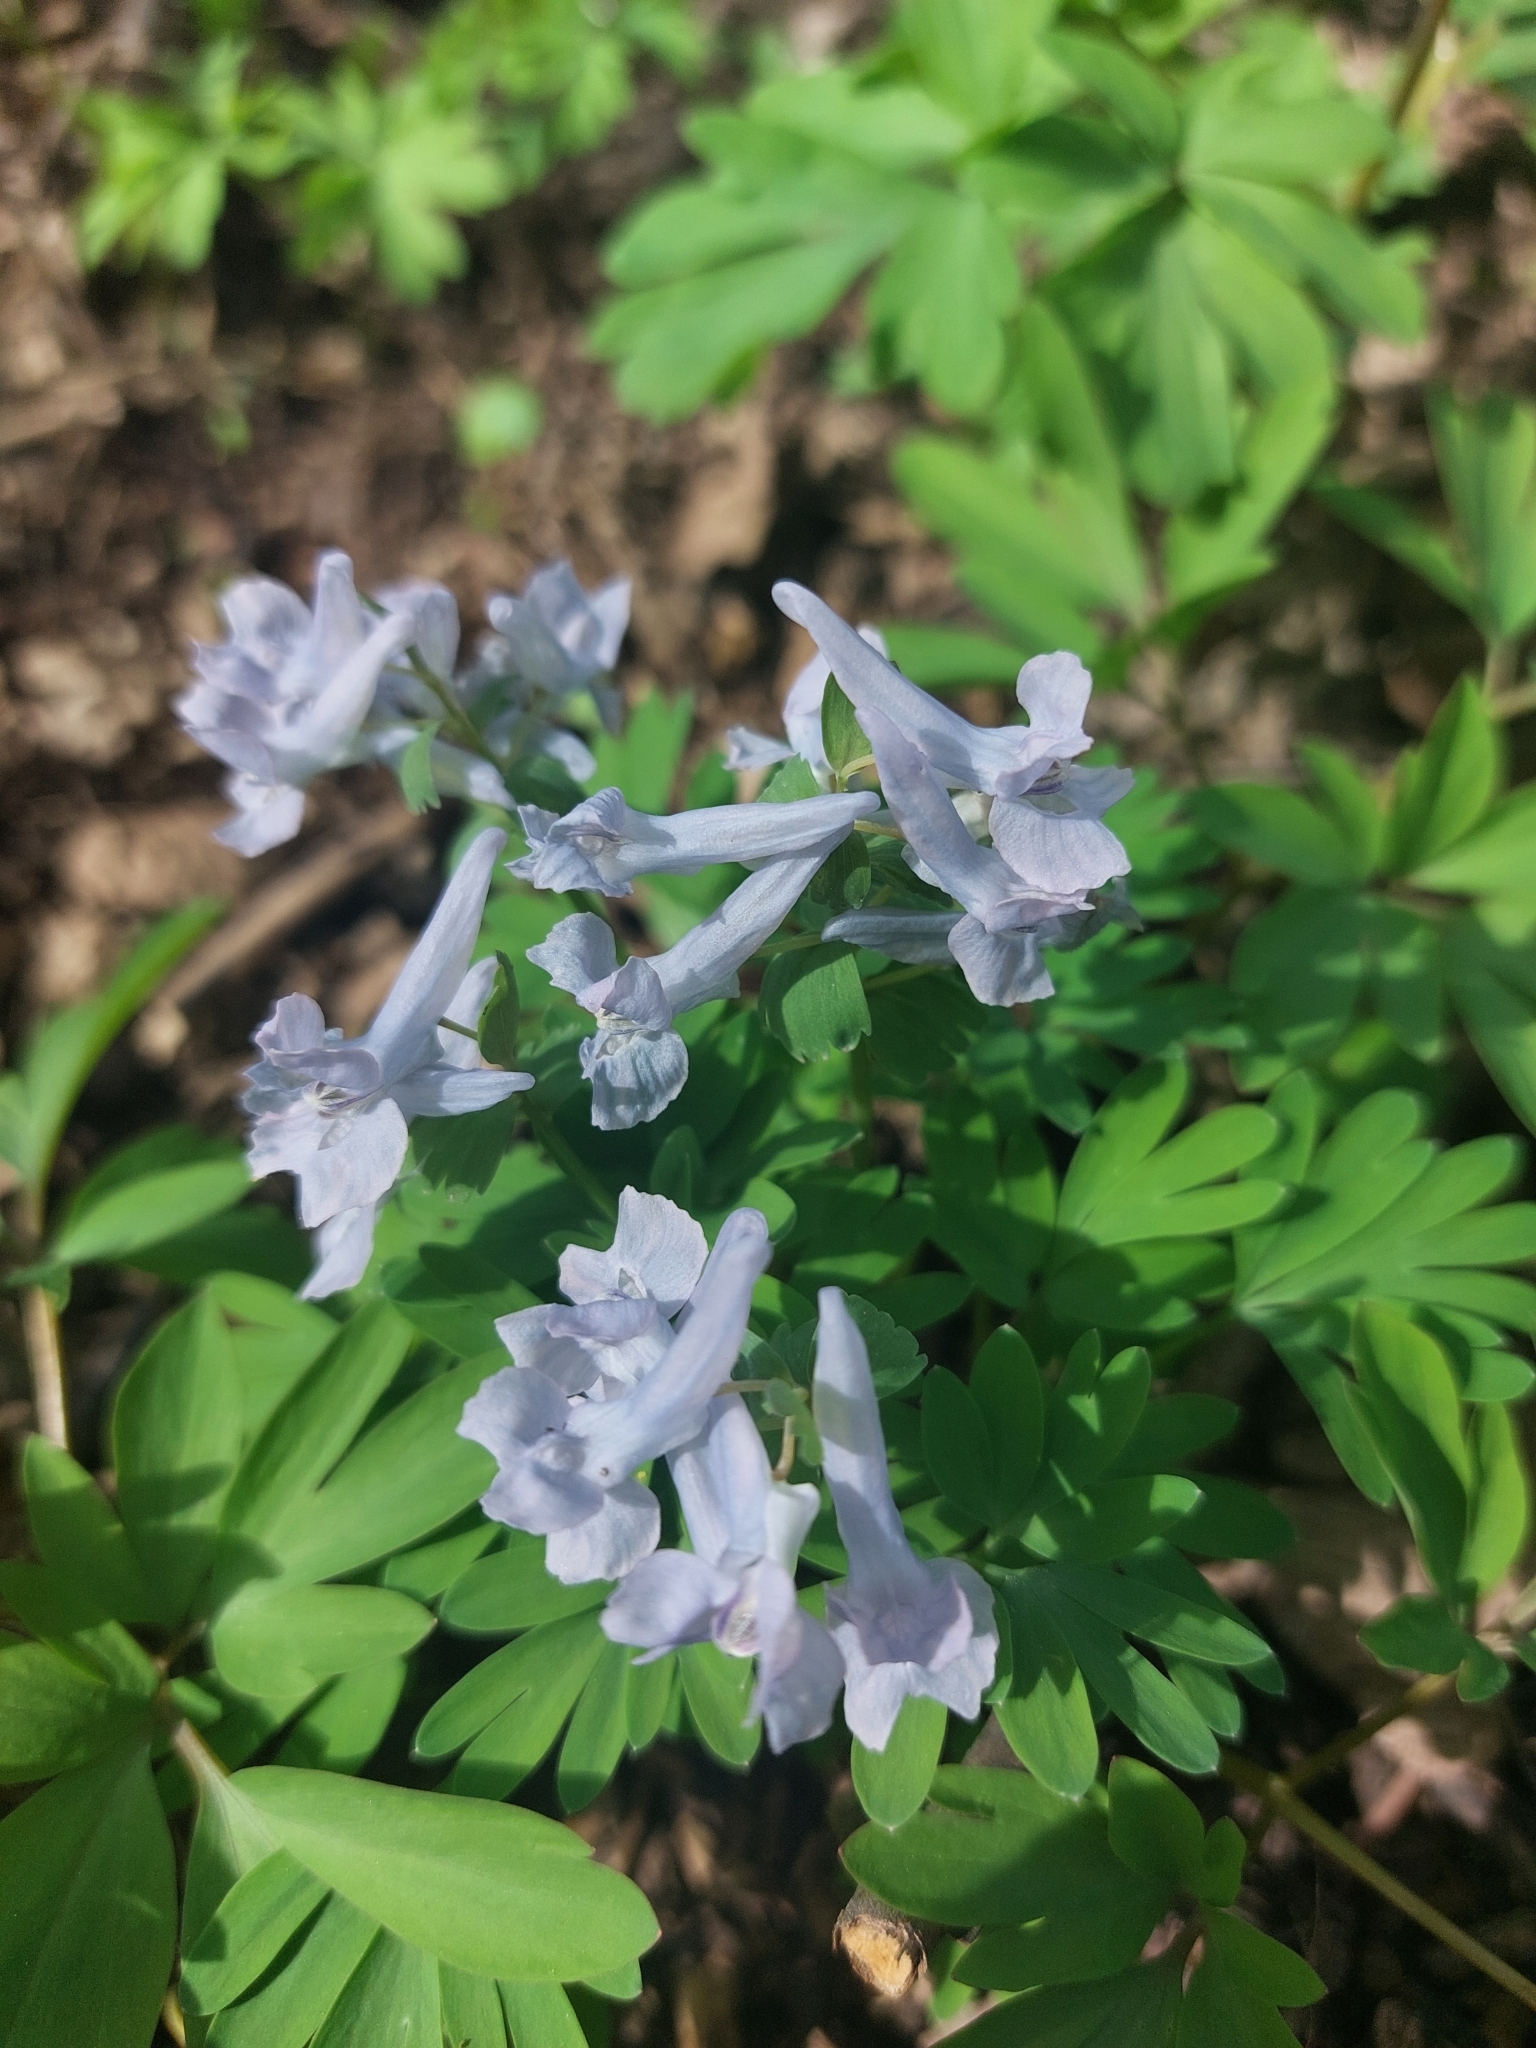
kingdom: Plantae
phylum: Tracheophyta
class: Magnoliopsida
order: Ranunculales
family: Papaveraceae
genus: Corydalis
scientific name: Corydalis solida
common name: Bird-in-a-bush
